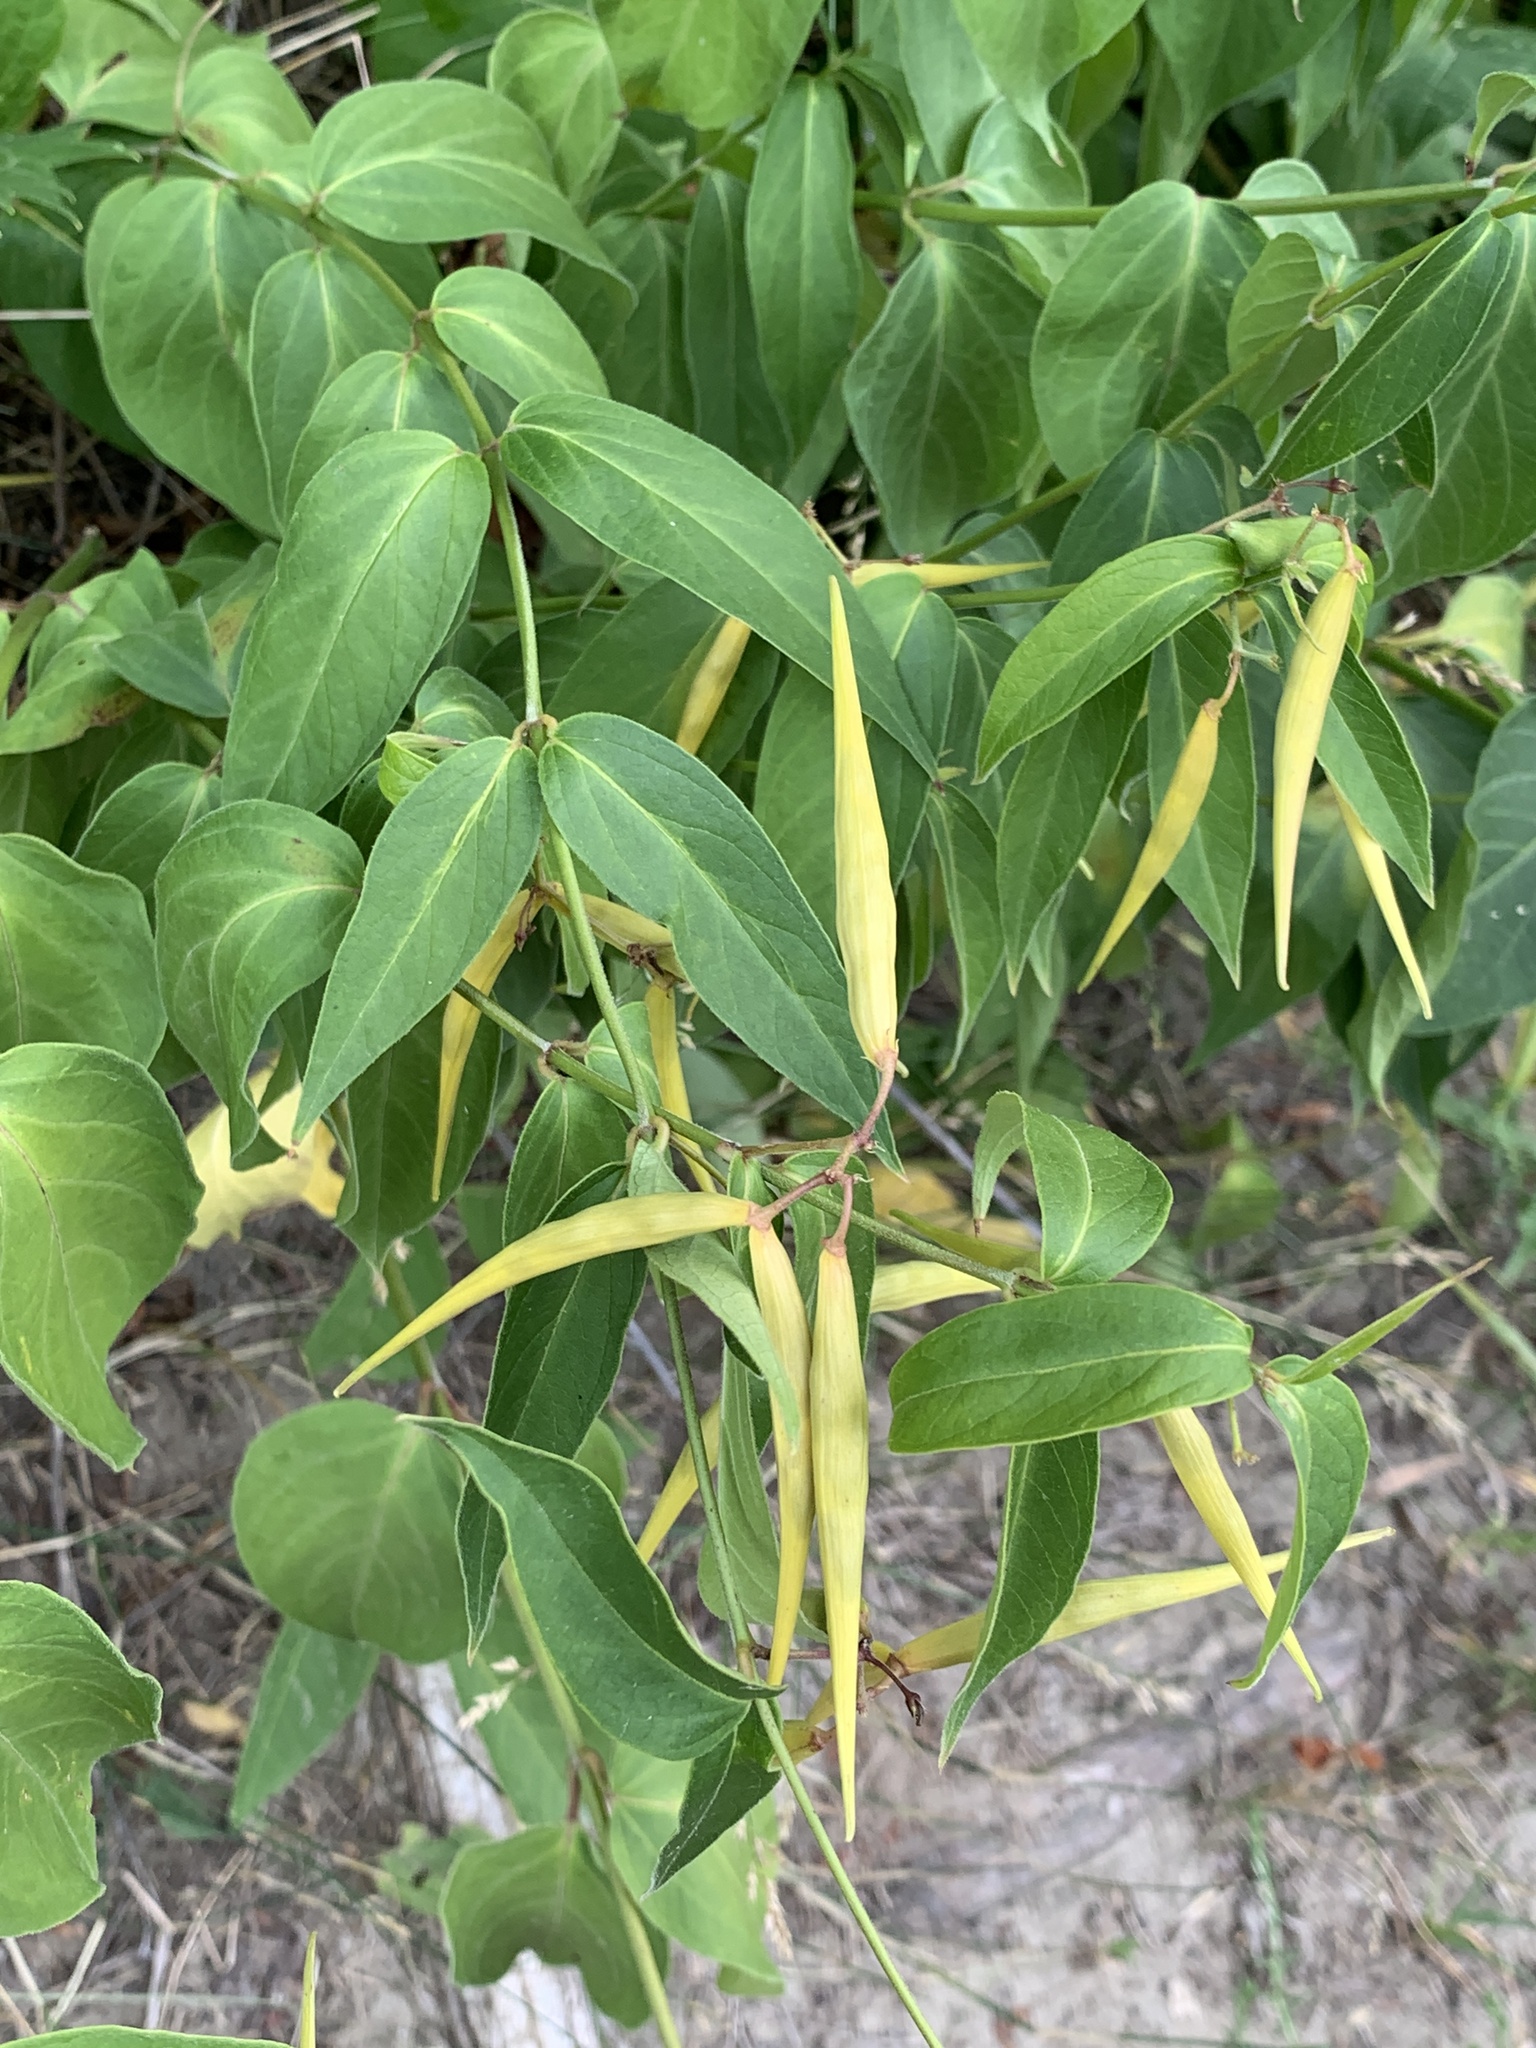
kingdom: Plantae
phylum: Tracheophyta
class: Magnoliopsida
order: Gentianales
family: Apocynaceae
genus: Vincetoxicum
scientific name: Vincetoxicum rossicum
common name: Dog-strangling vine
